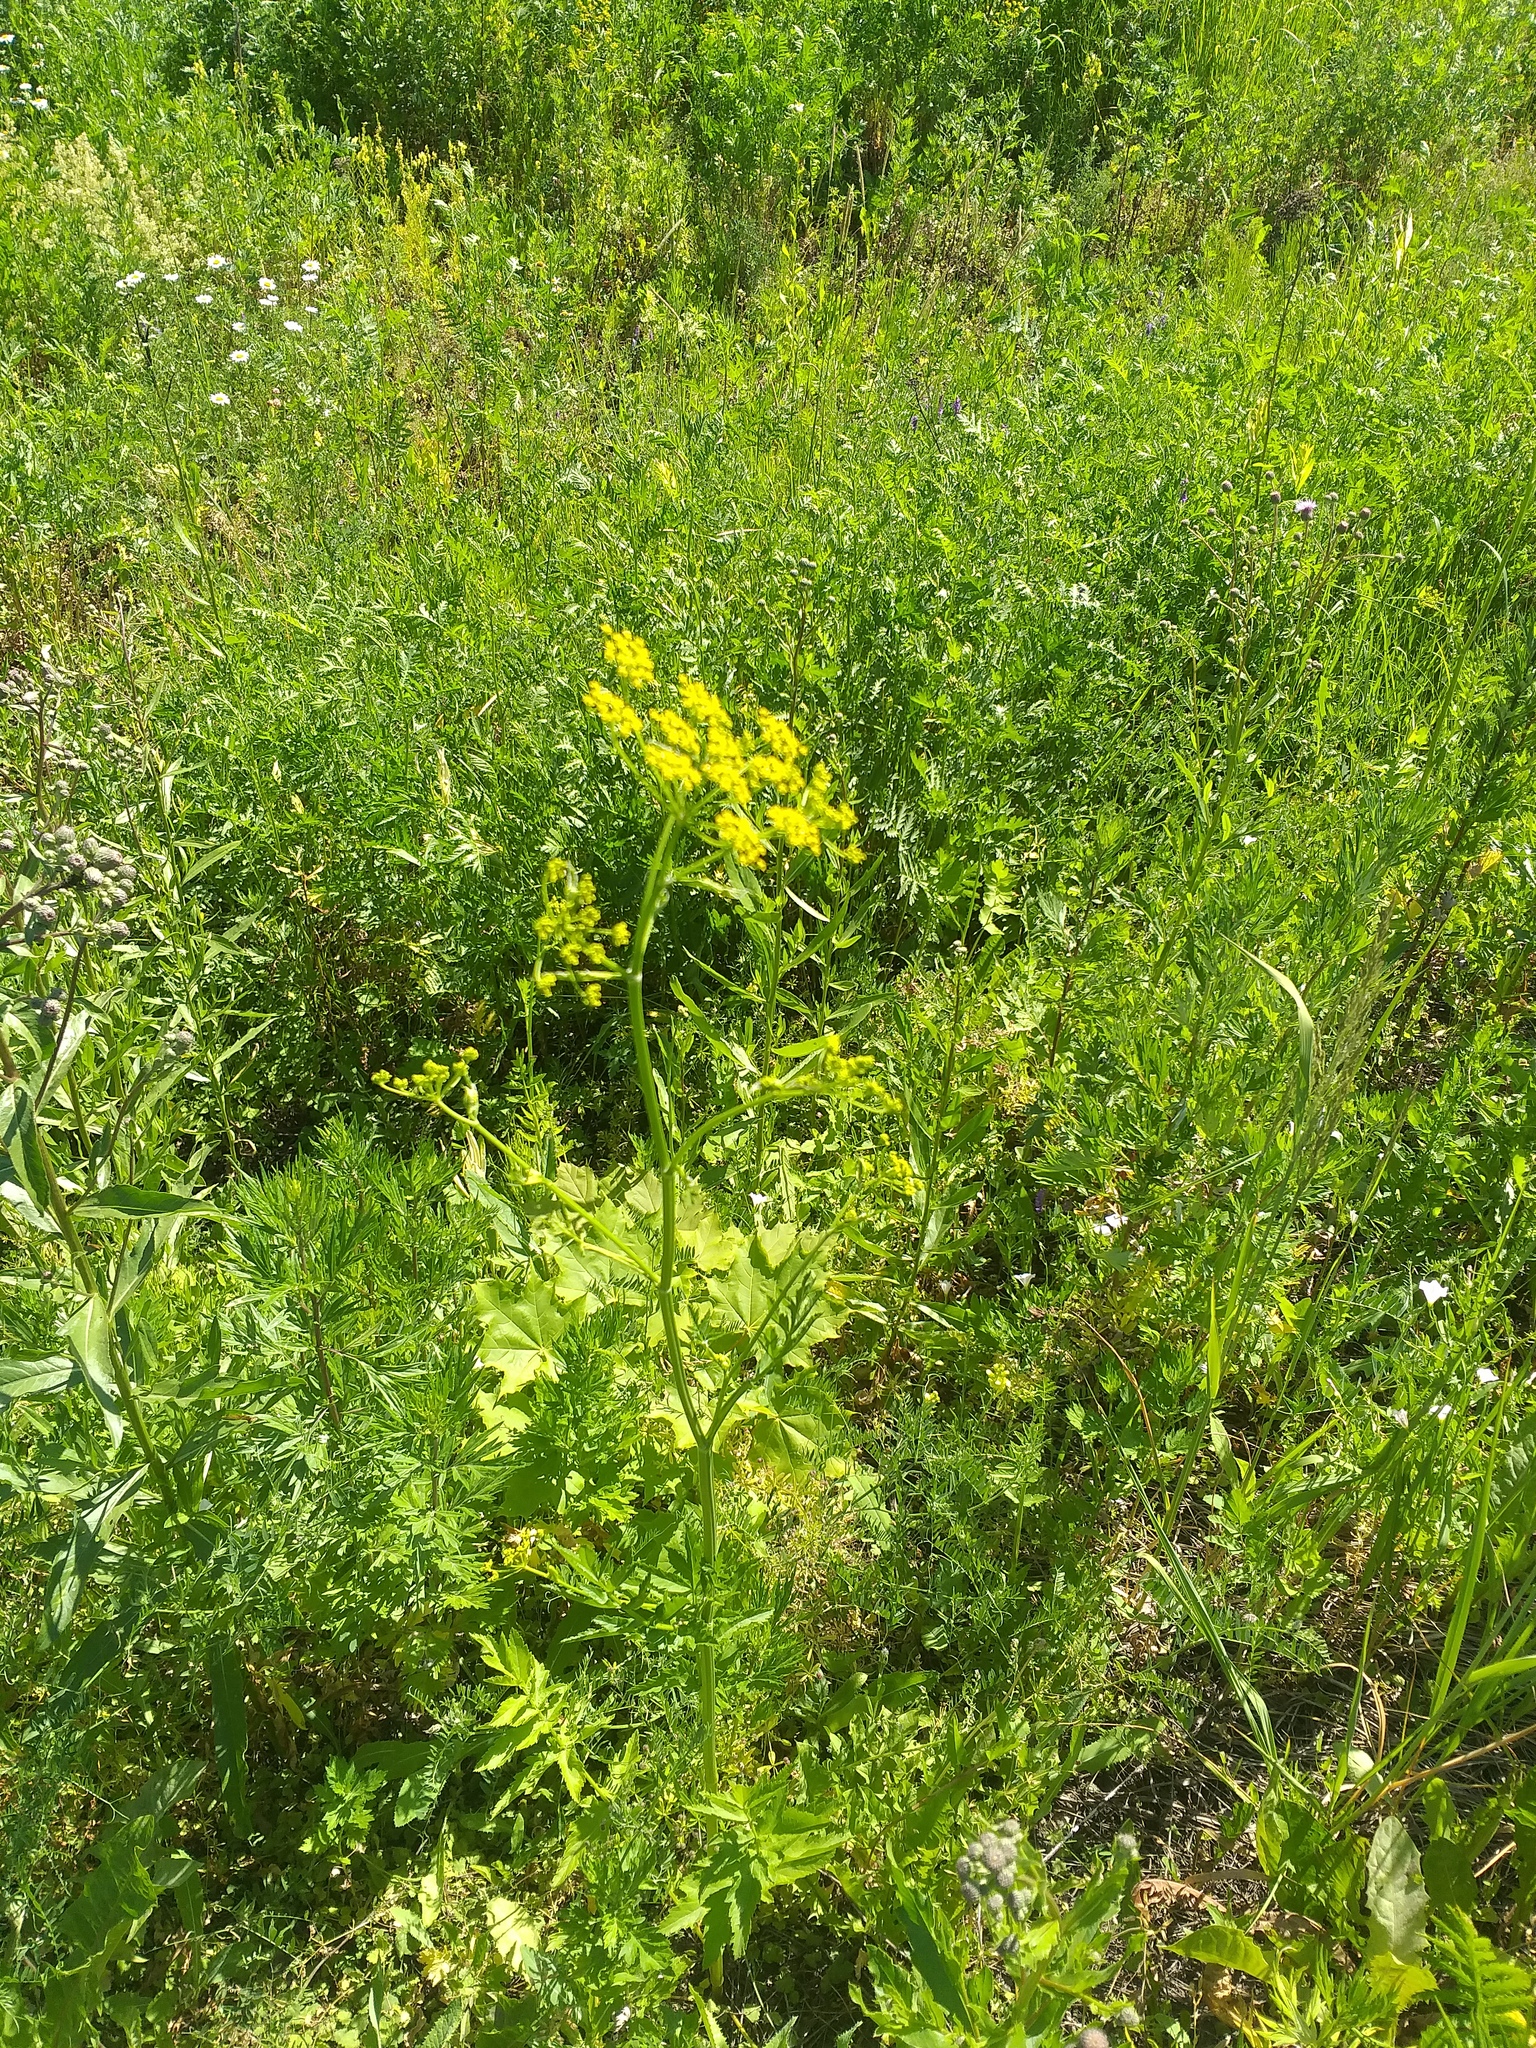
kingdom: Plantae
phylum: Tracheophyta
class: Magnoliopsida
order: Apiales
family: Apiaceae
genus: Pastinaca
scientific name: Pastinaca sativa
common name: Wild parsnip
